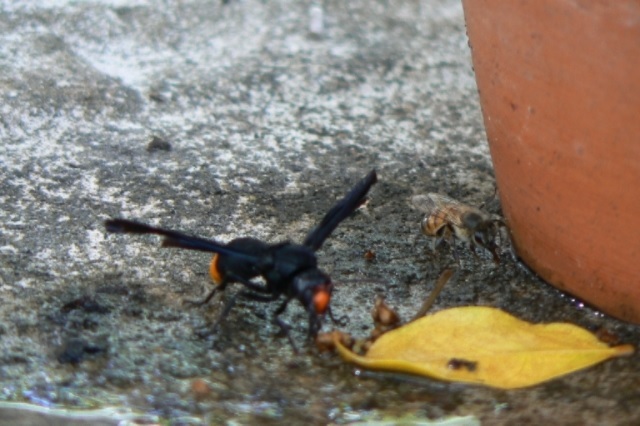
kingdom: Animalia
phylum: Arthropoda
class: Insecta
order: Hymenoptera
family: Vespidae
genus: Synagris
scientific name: Synagris analis
